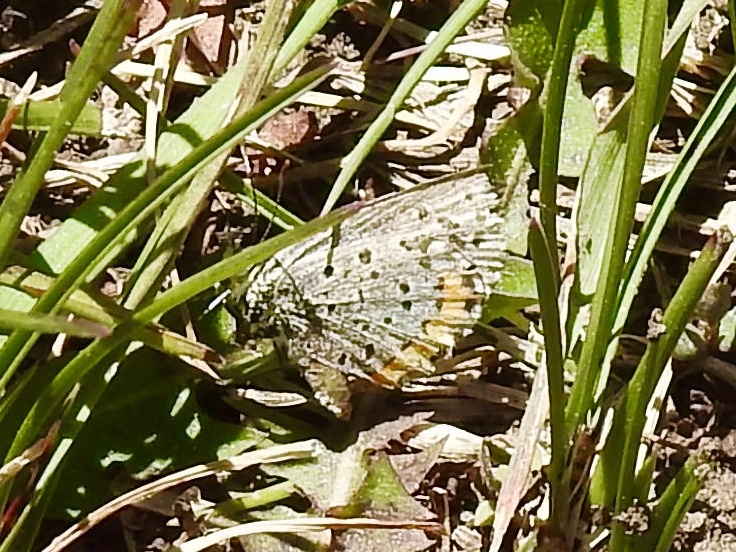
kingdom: Animalia
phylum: Arthropoda
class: Insecta
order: Lepidoptera
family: Lycaenidae
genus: Icaricia
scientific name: Icaricia lupini
